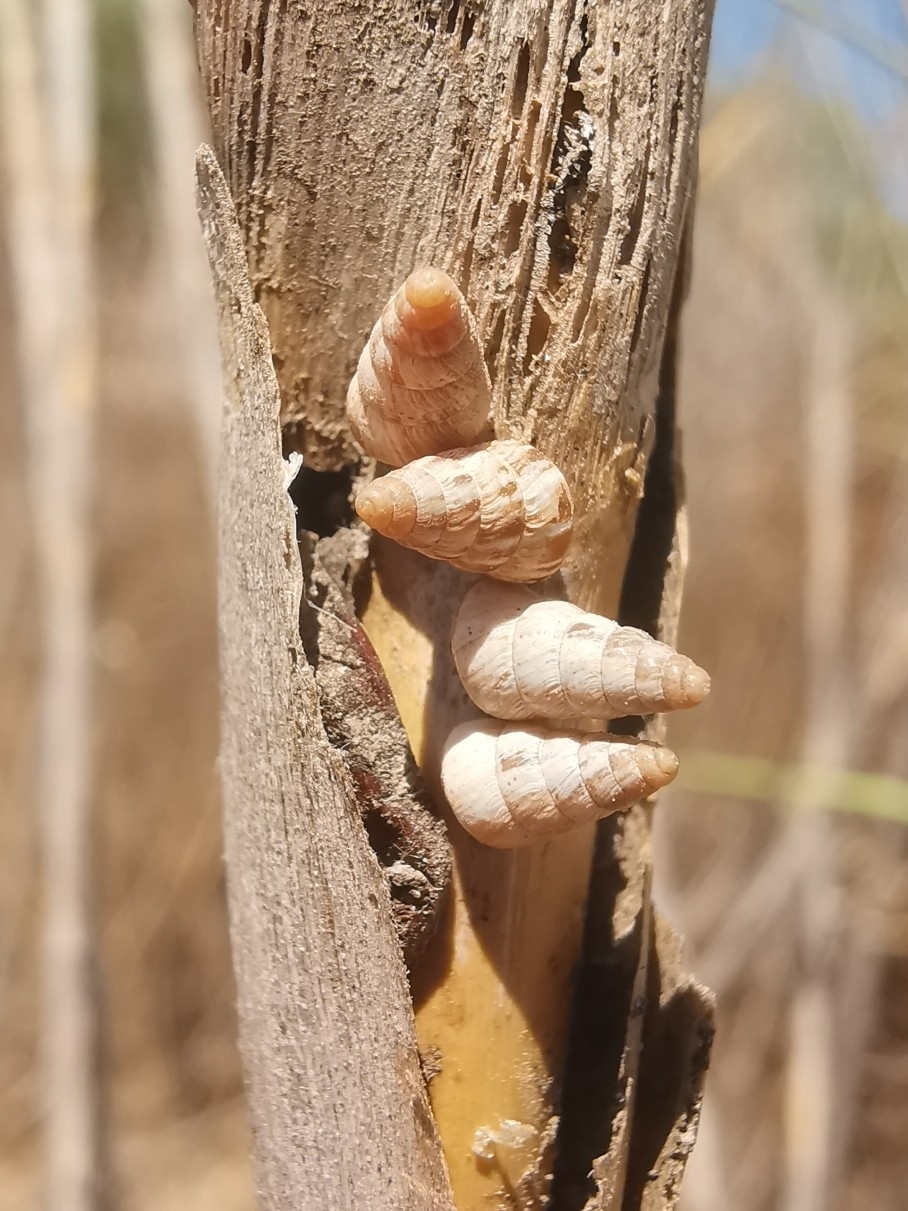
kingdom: Animalia
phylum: Mollusca
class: Gastropoda
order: Stylommatophora
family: Geomitridae
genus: Cochlicella
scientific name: Cochlicella barbara
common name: Potbellied helicellid
